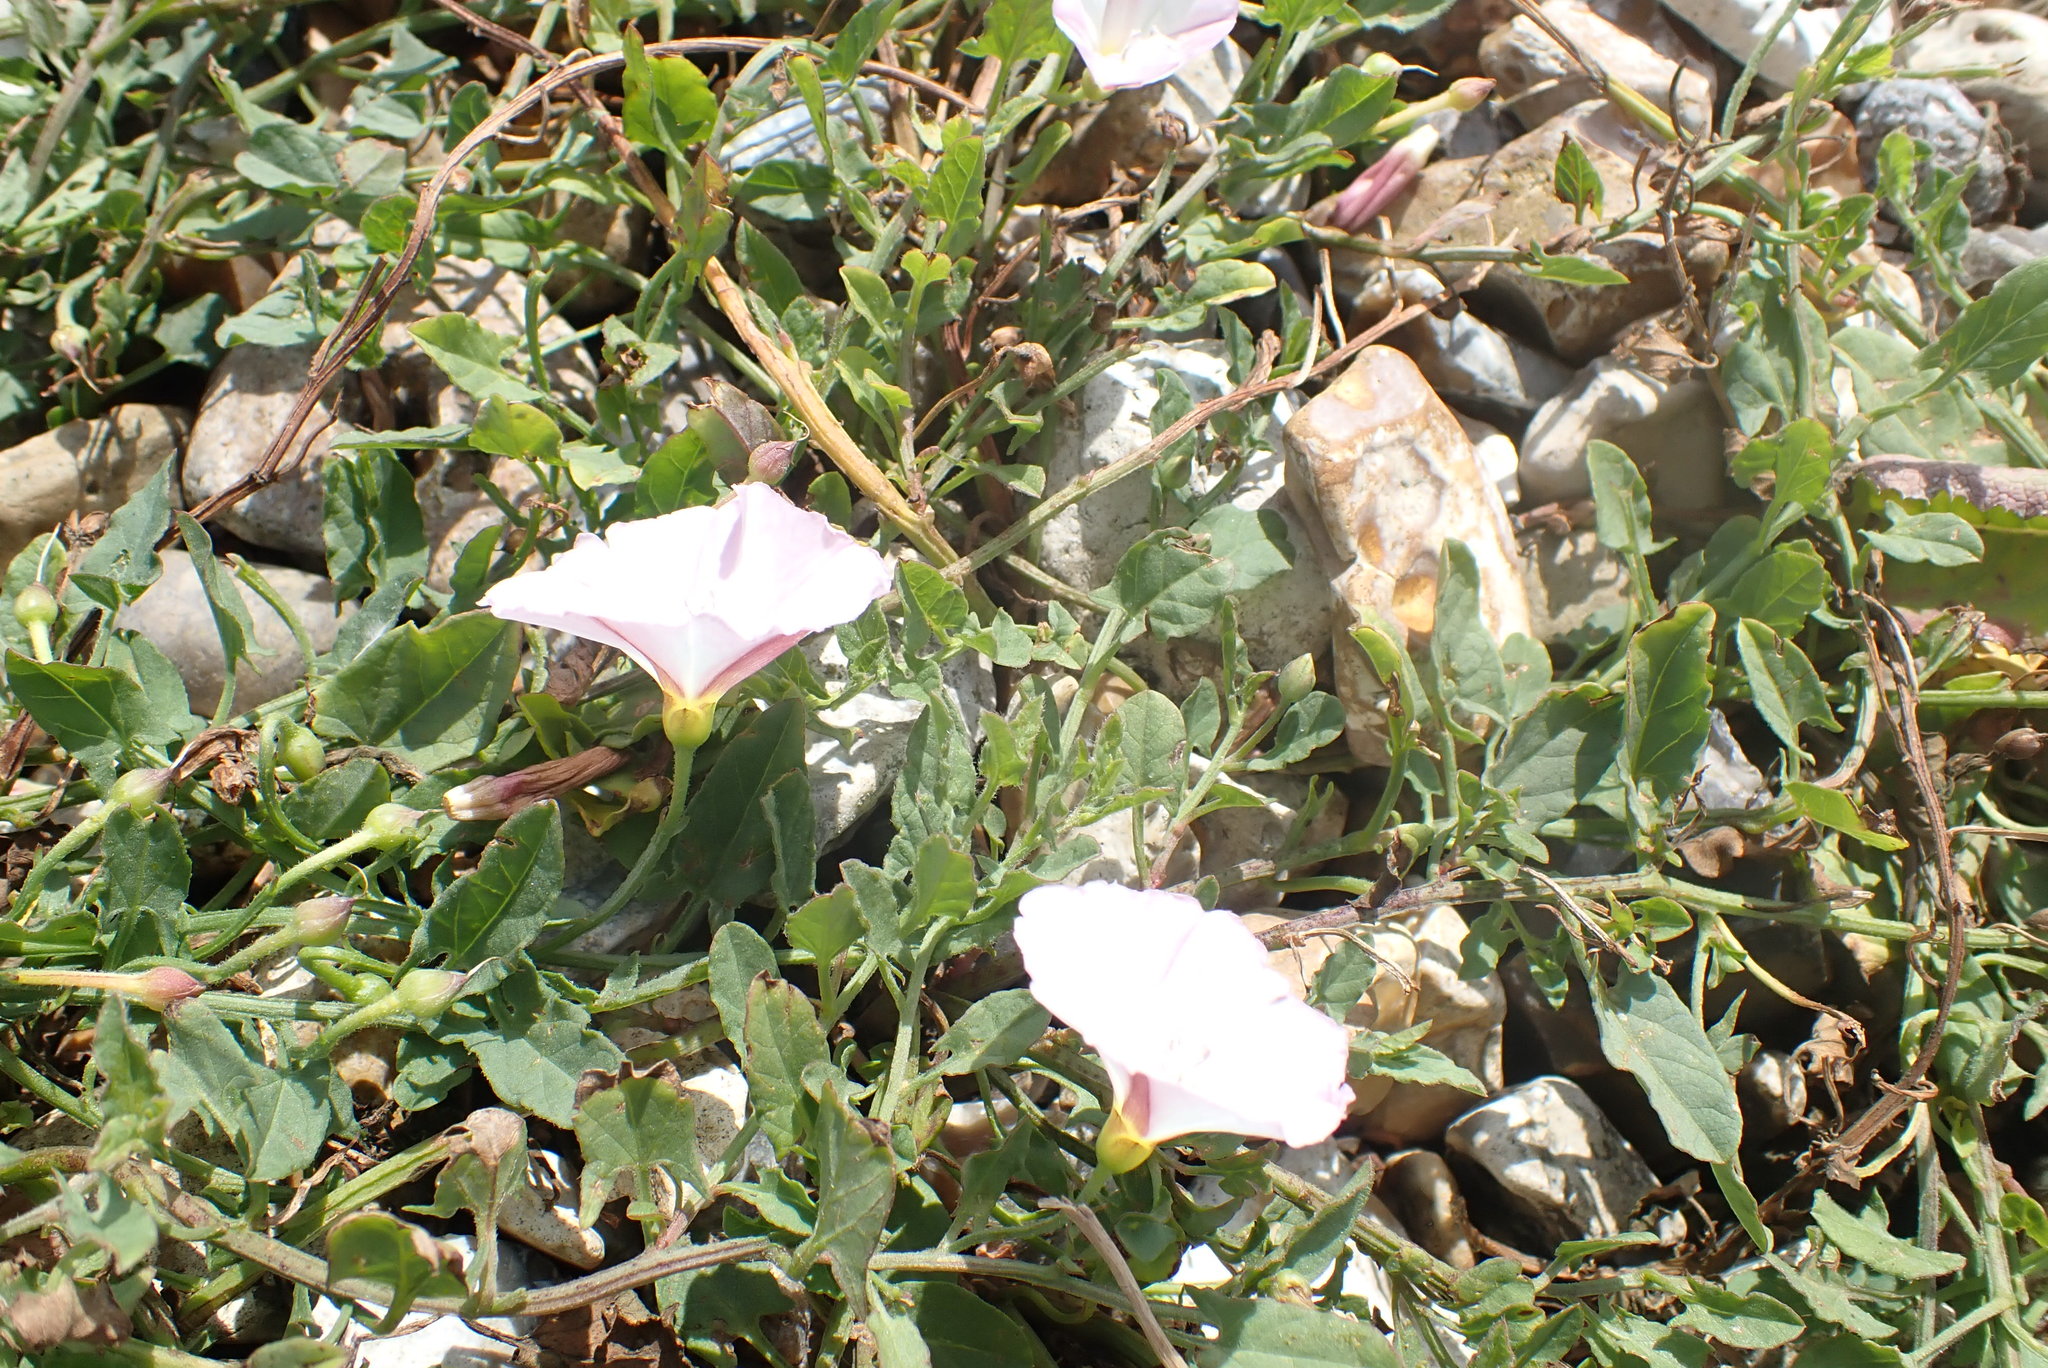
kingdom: Plantae
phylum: Tracheophyta
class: Magnoliopsida
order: Solanales
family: Convolvulaceae
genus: Convolvulus
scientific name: Convolvulus arvensis
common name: Field bindweed
